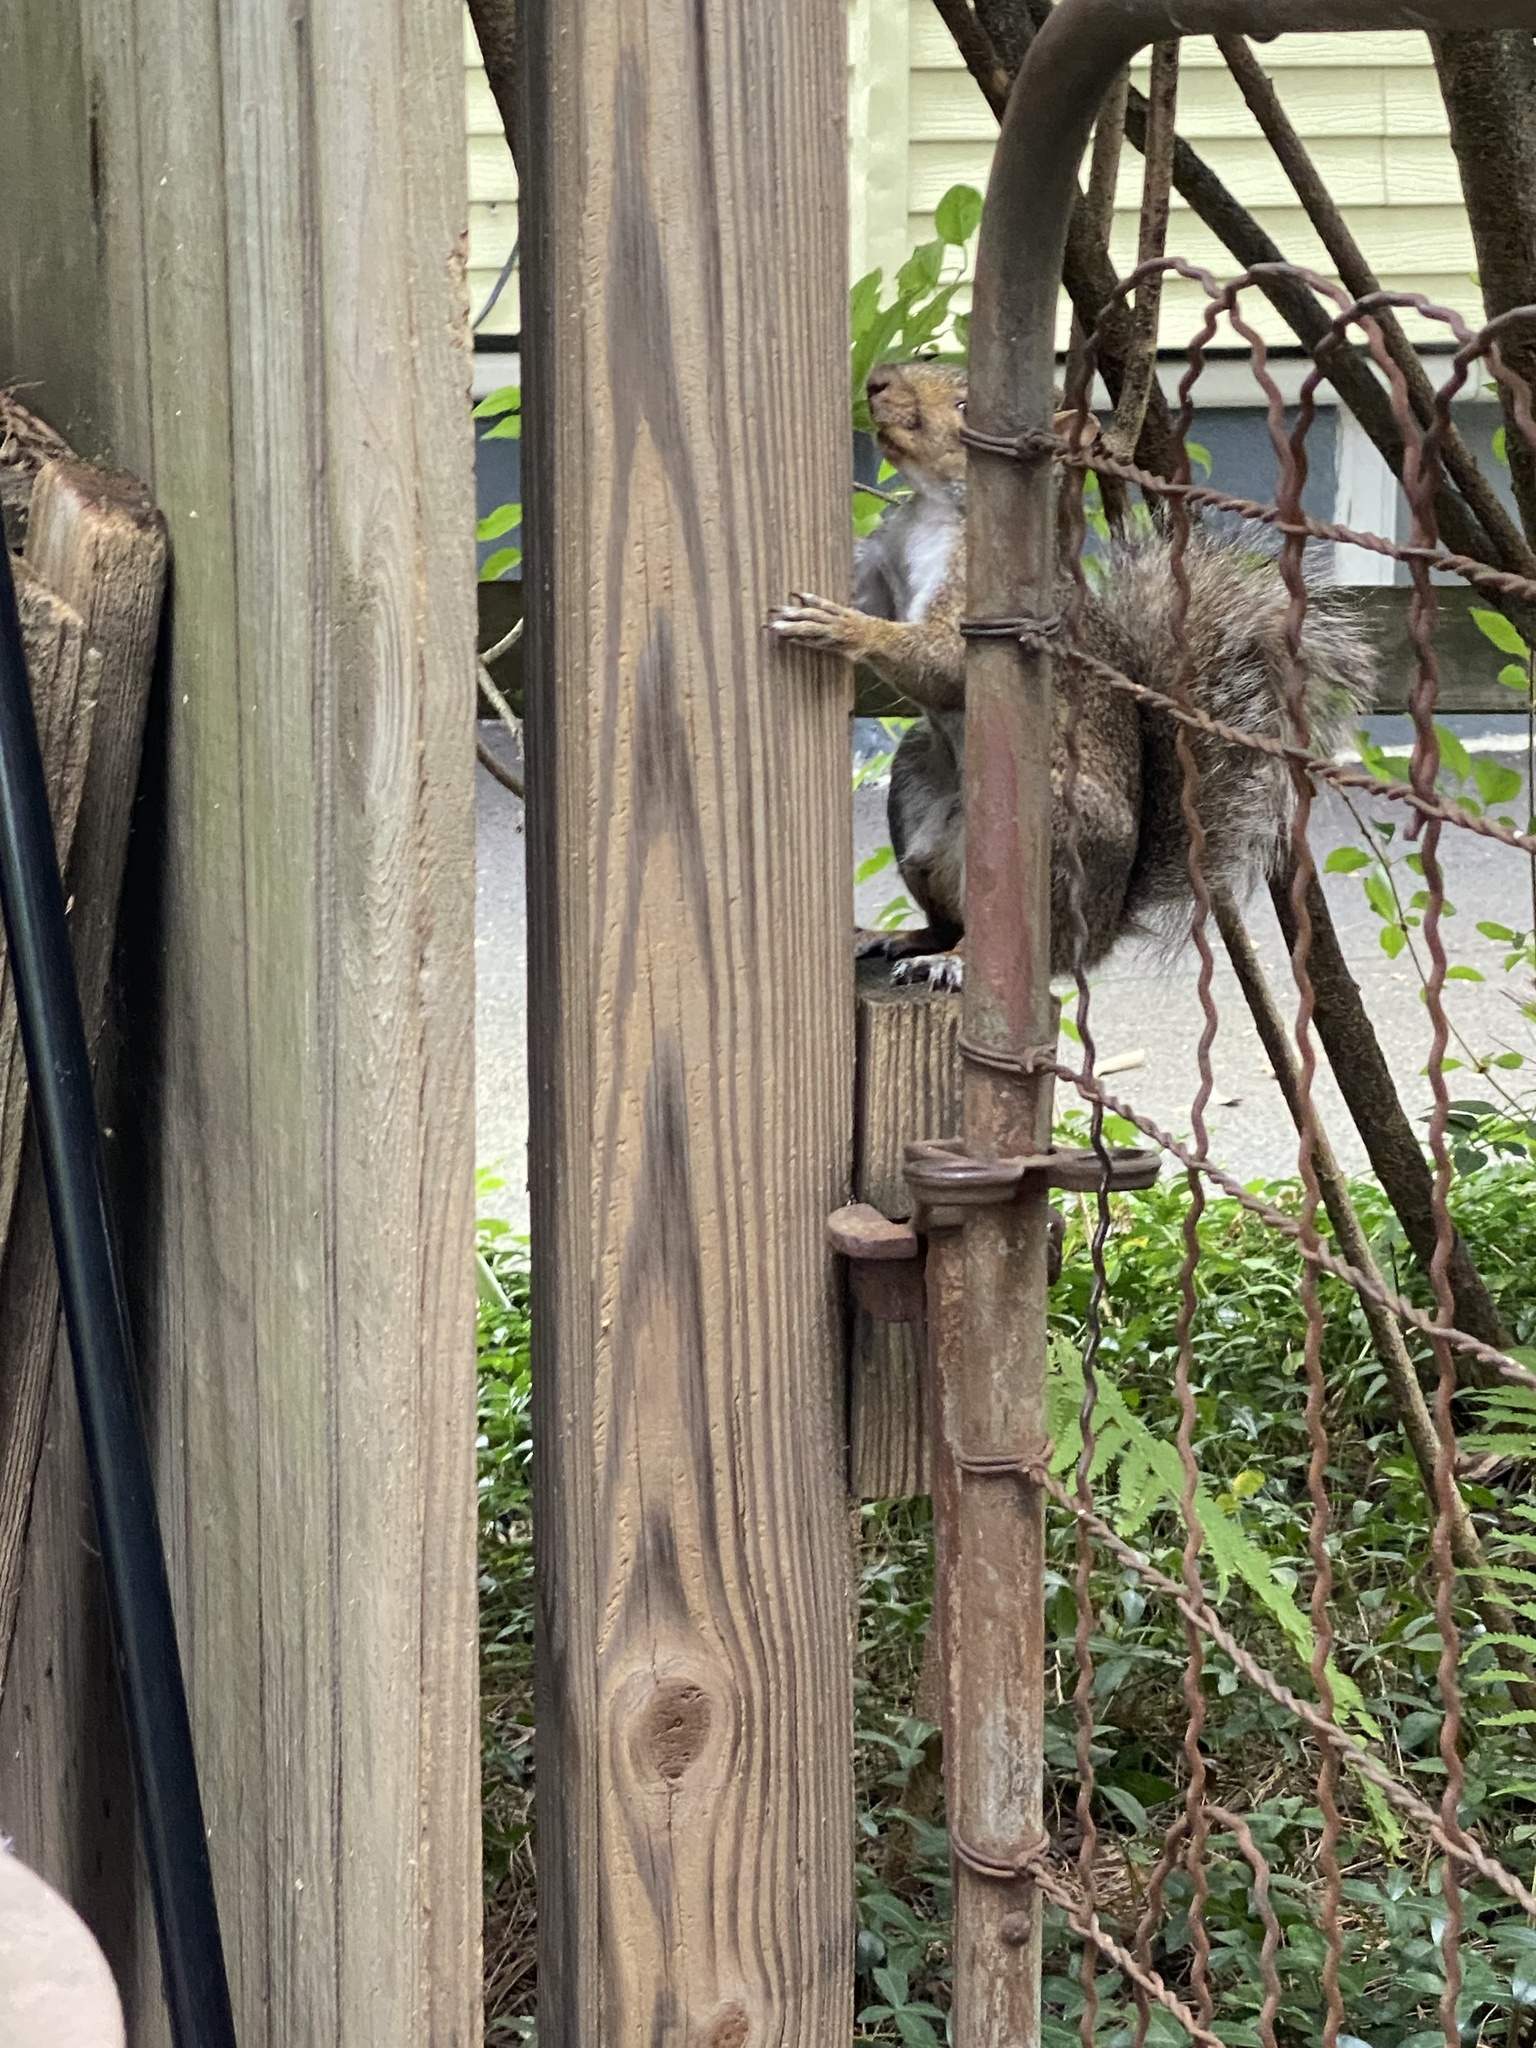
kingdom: Animalia
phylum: Chordata
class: Mammalia
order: Rodentia
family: Sciuridae
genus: Sciurus
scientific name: Sciurus carolinensis
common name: Eastern gray squirrel
